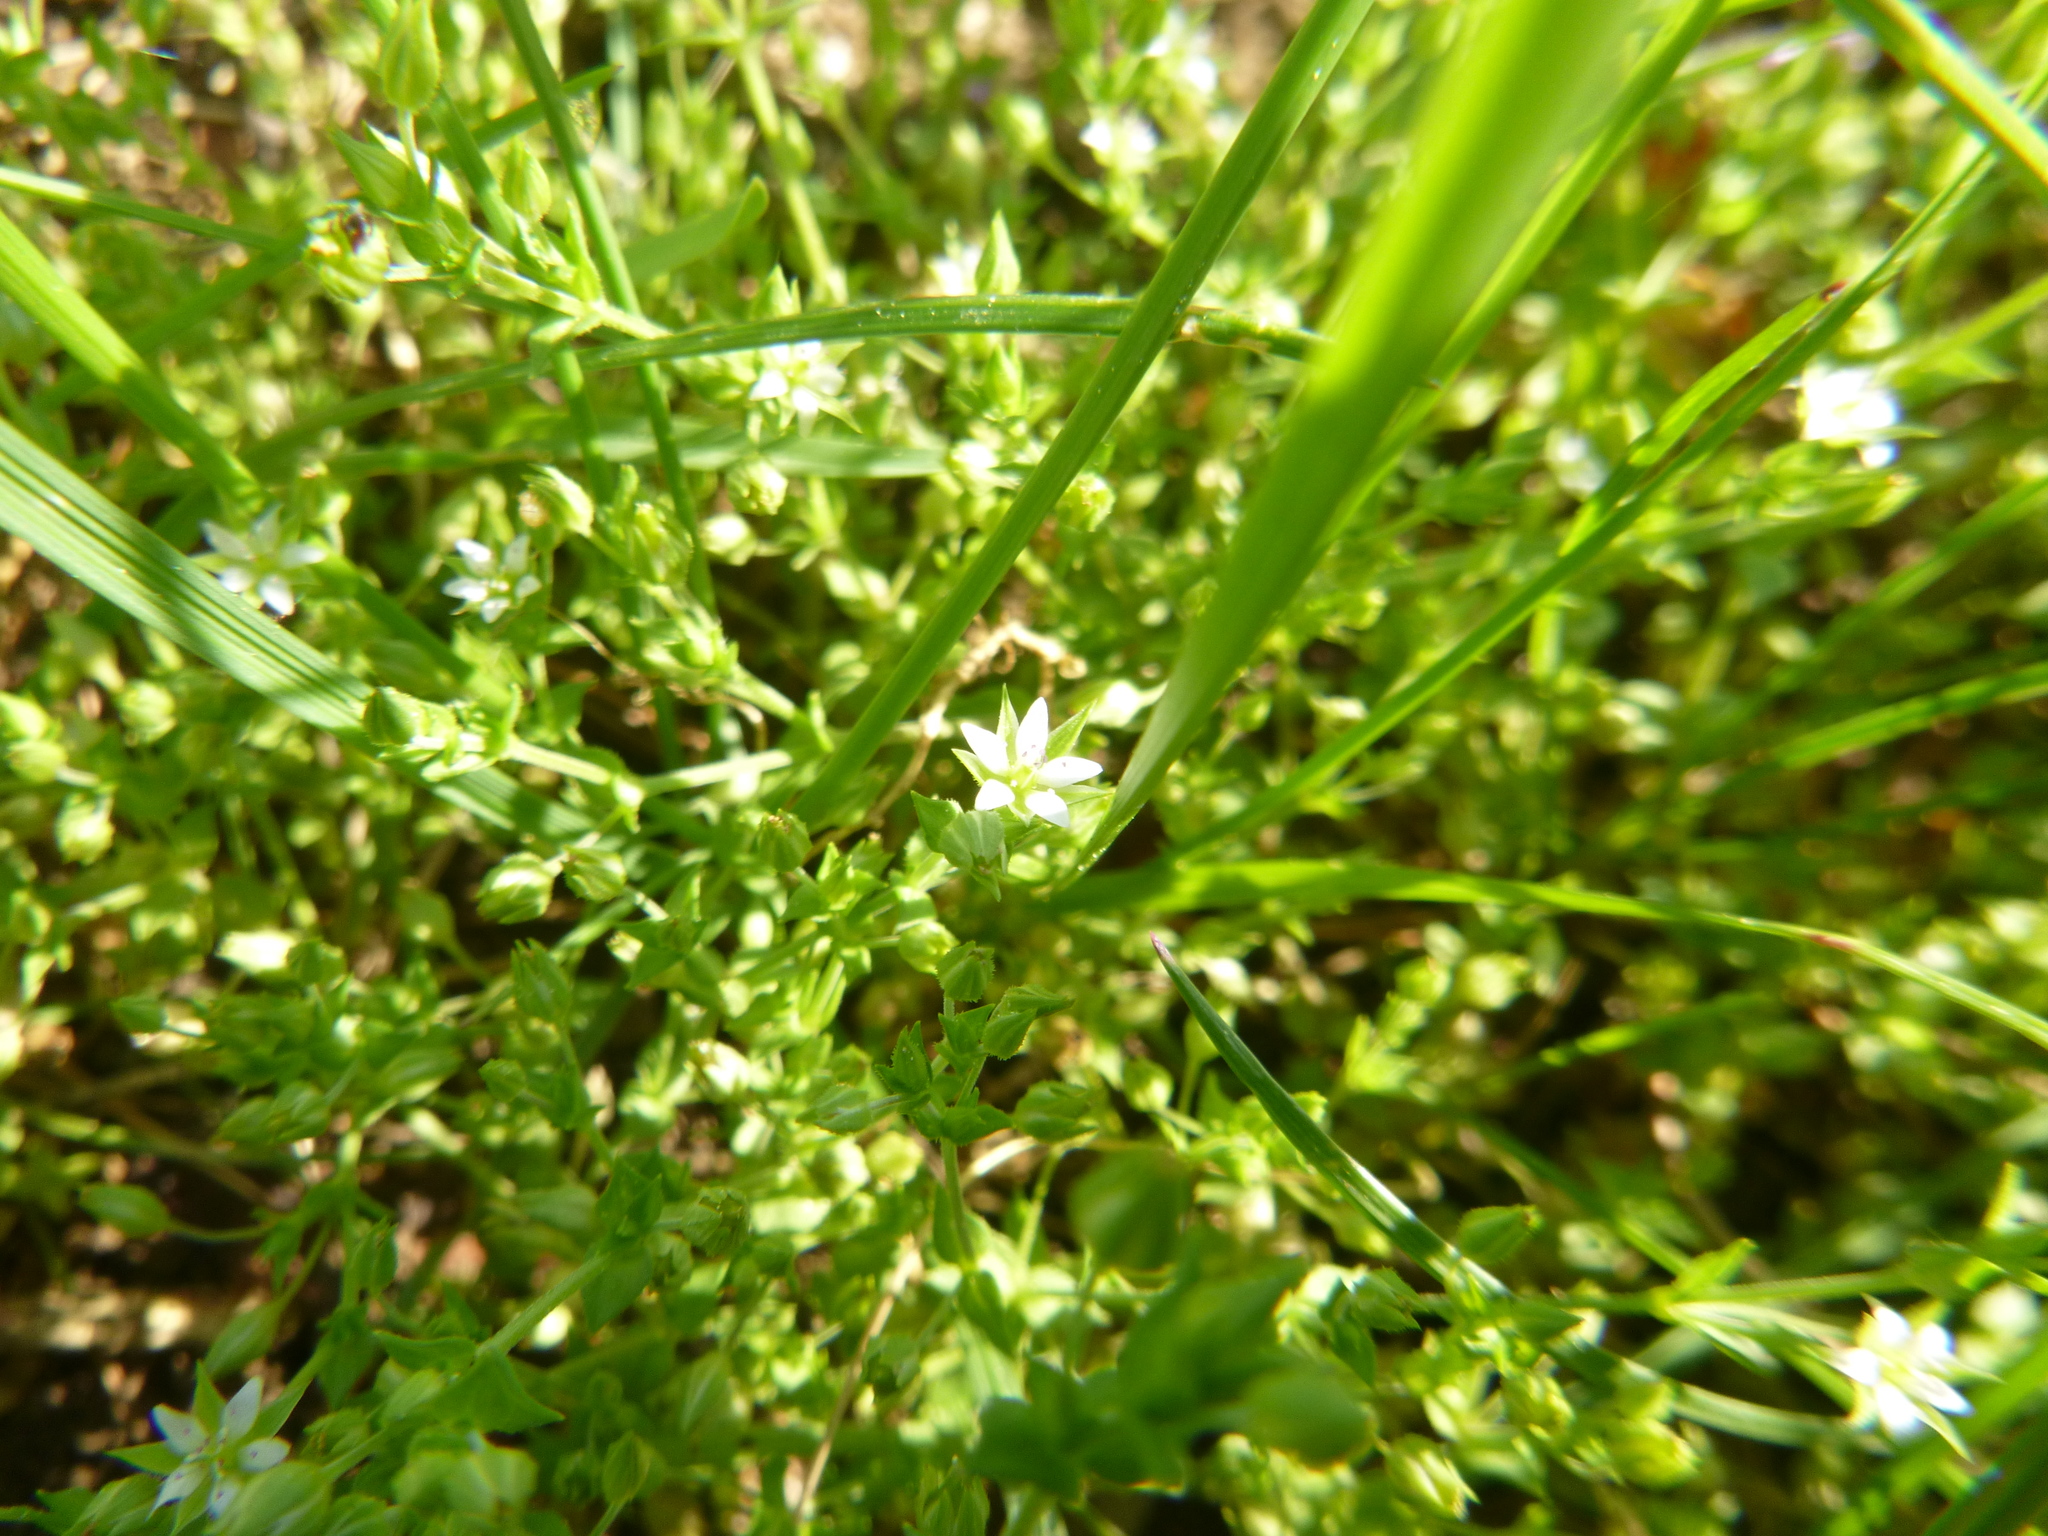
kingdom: Plantae
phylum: Tracheophyta
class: Magnoliopsida
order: Caryophyllales
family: Caryophyllaceae
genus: Arenaria
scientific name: Arenaria serpyllifolia
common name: Thyme-leaved sandwort
